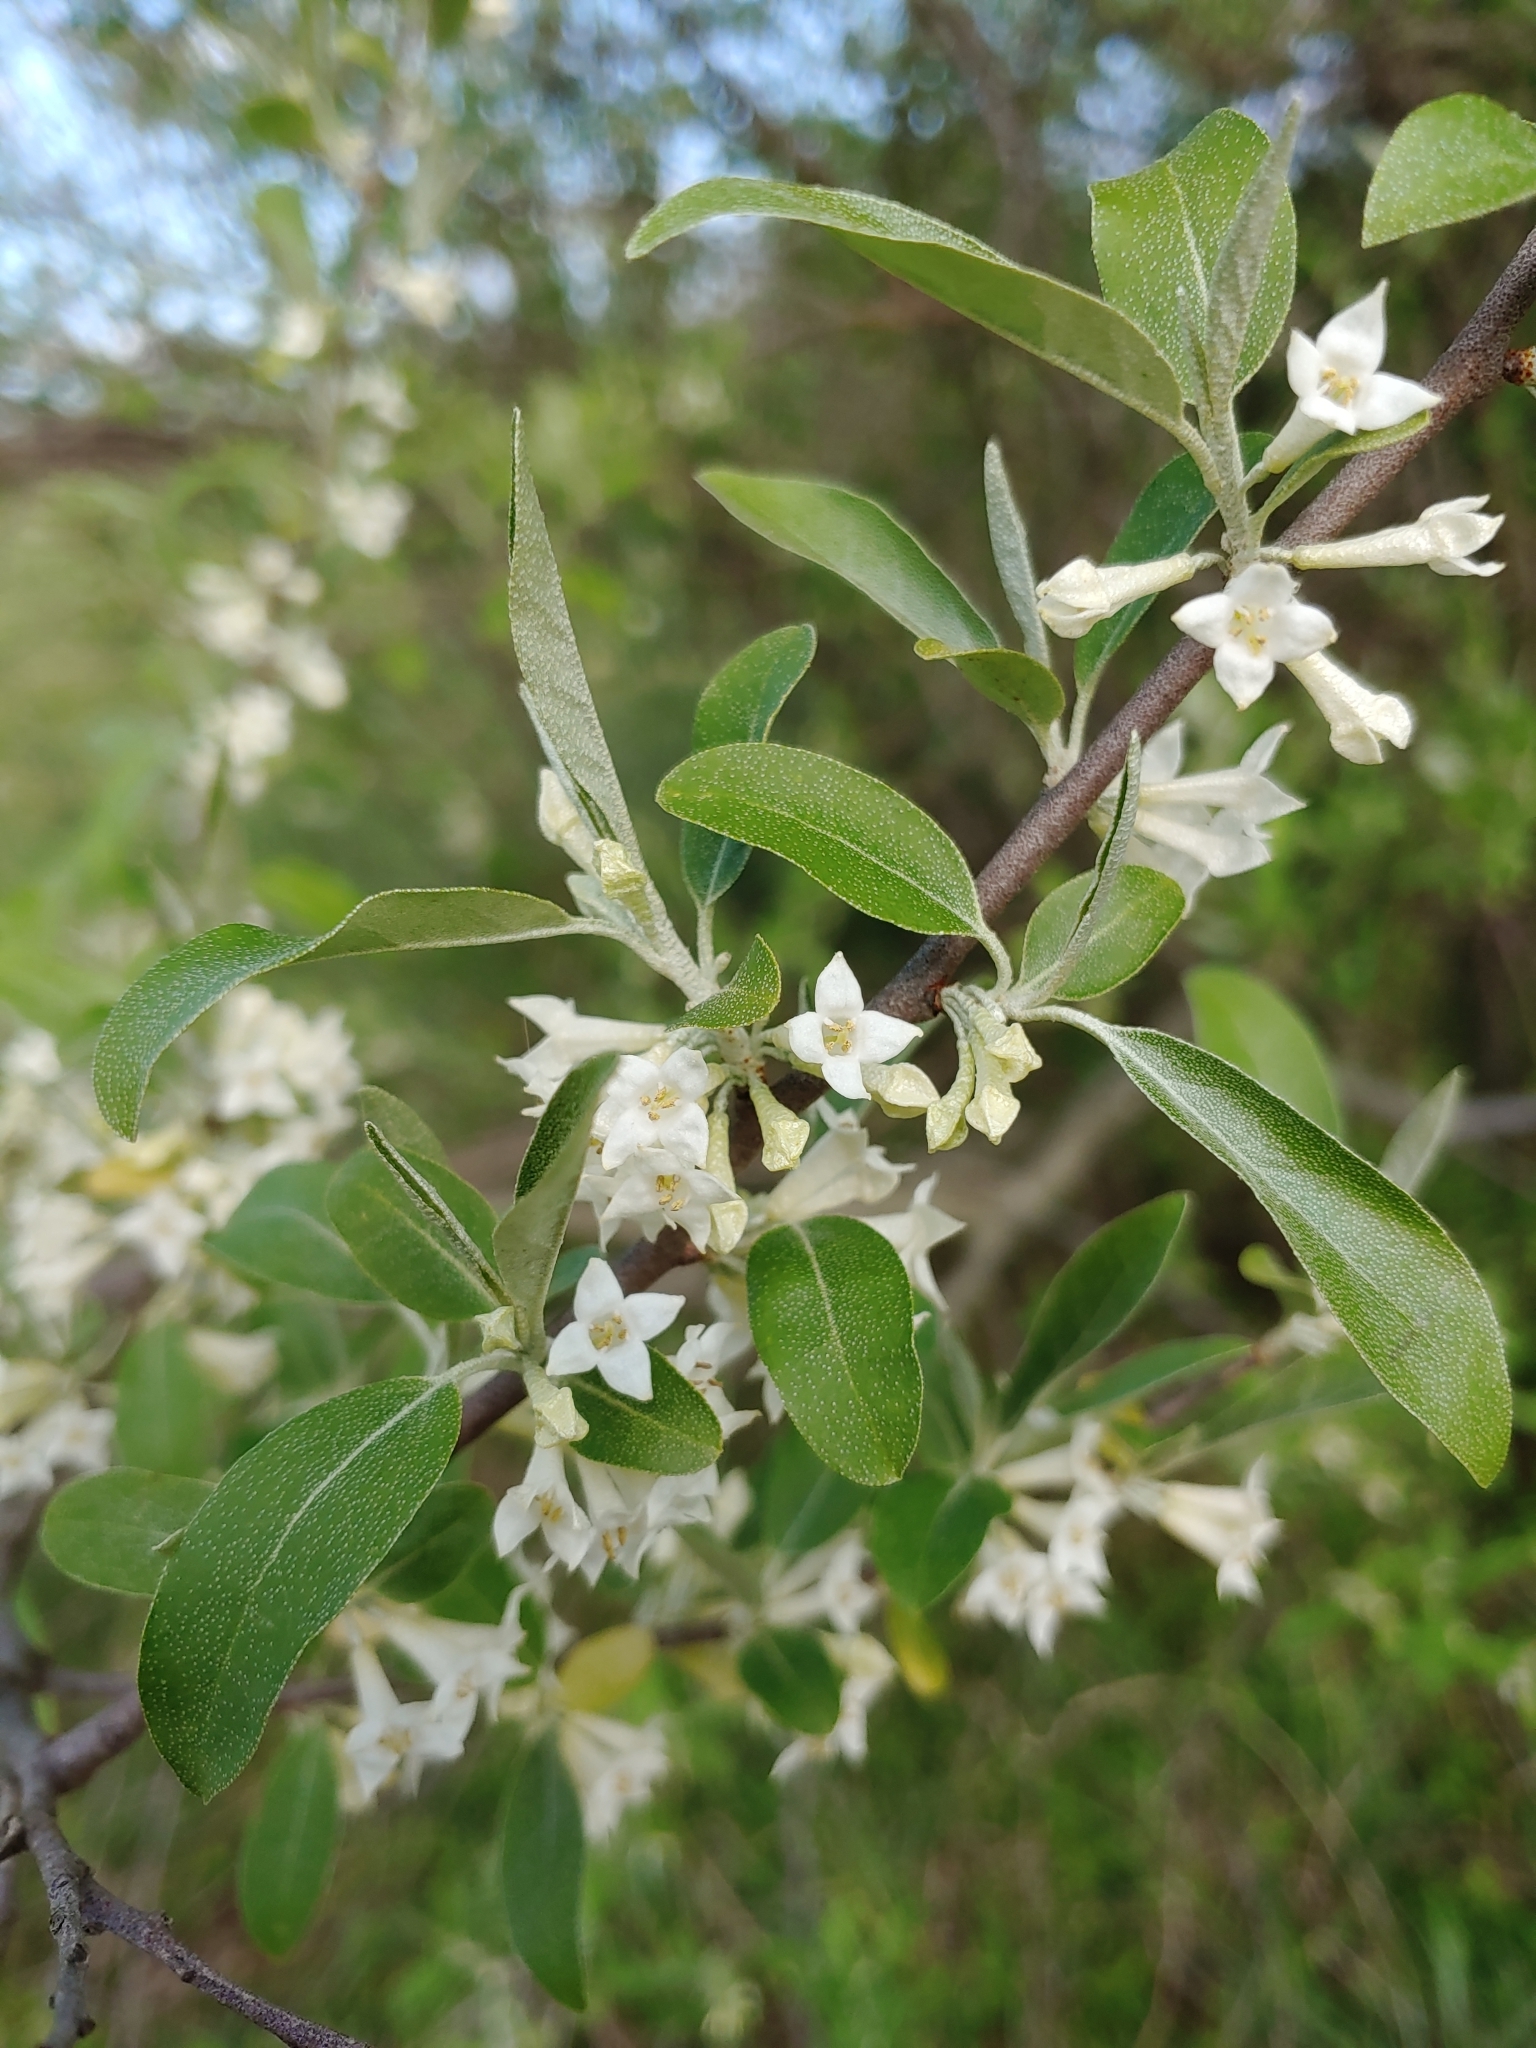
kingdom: Plantae
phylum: Tracheophyta
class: Magnoliopsida
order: Rosales
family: Elaeagnaceae
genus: Elaeagnus
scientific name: Elaeagnus umbellata
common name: Autumn olive
